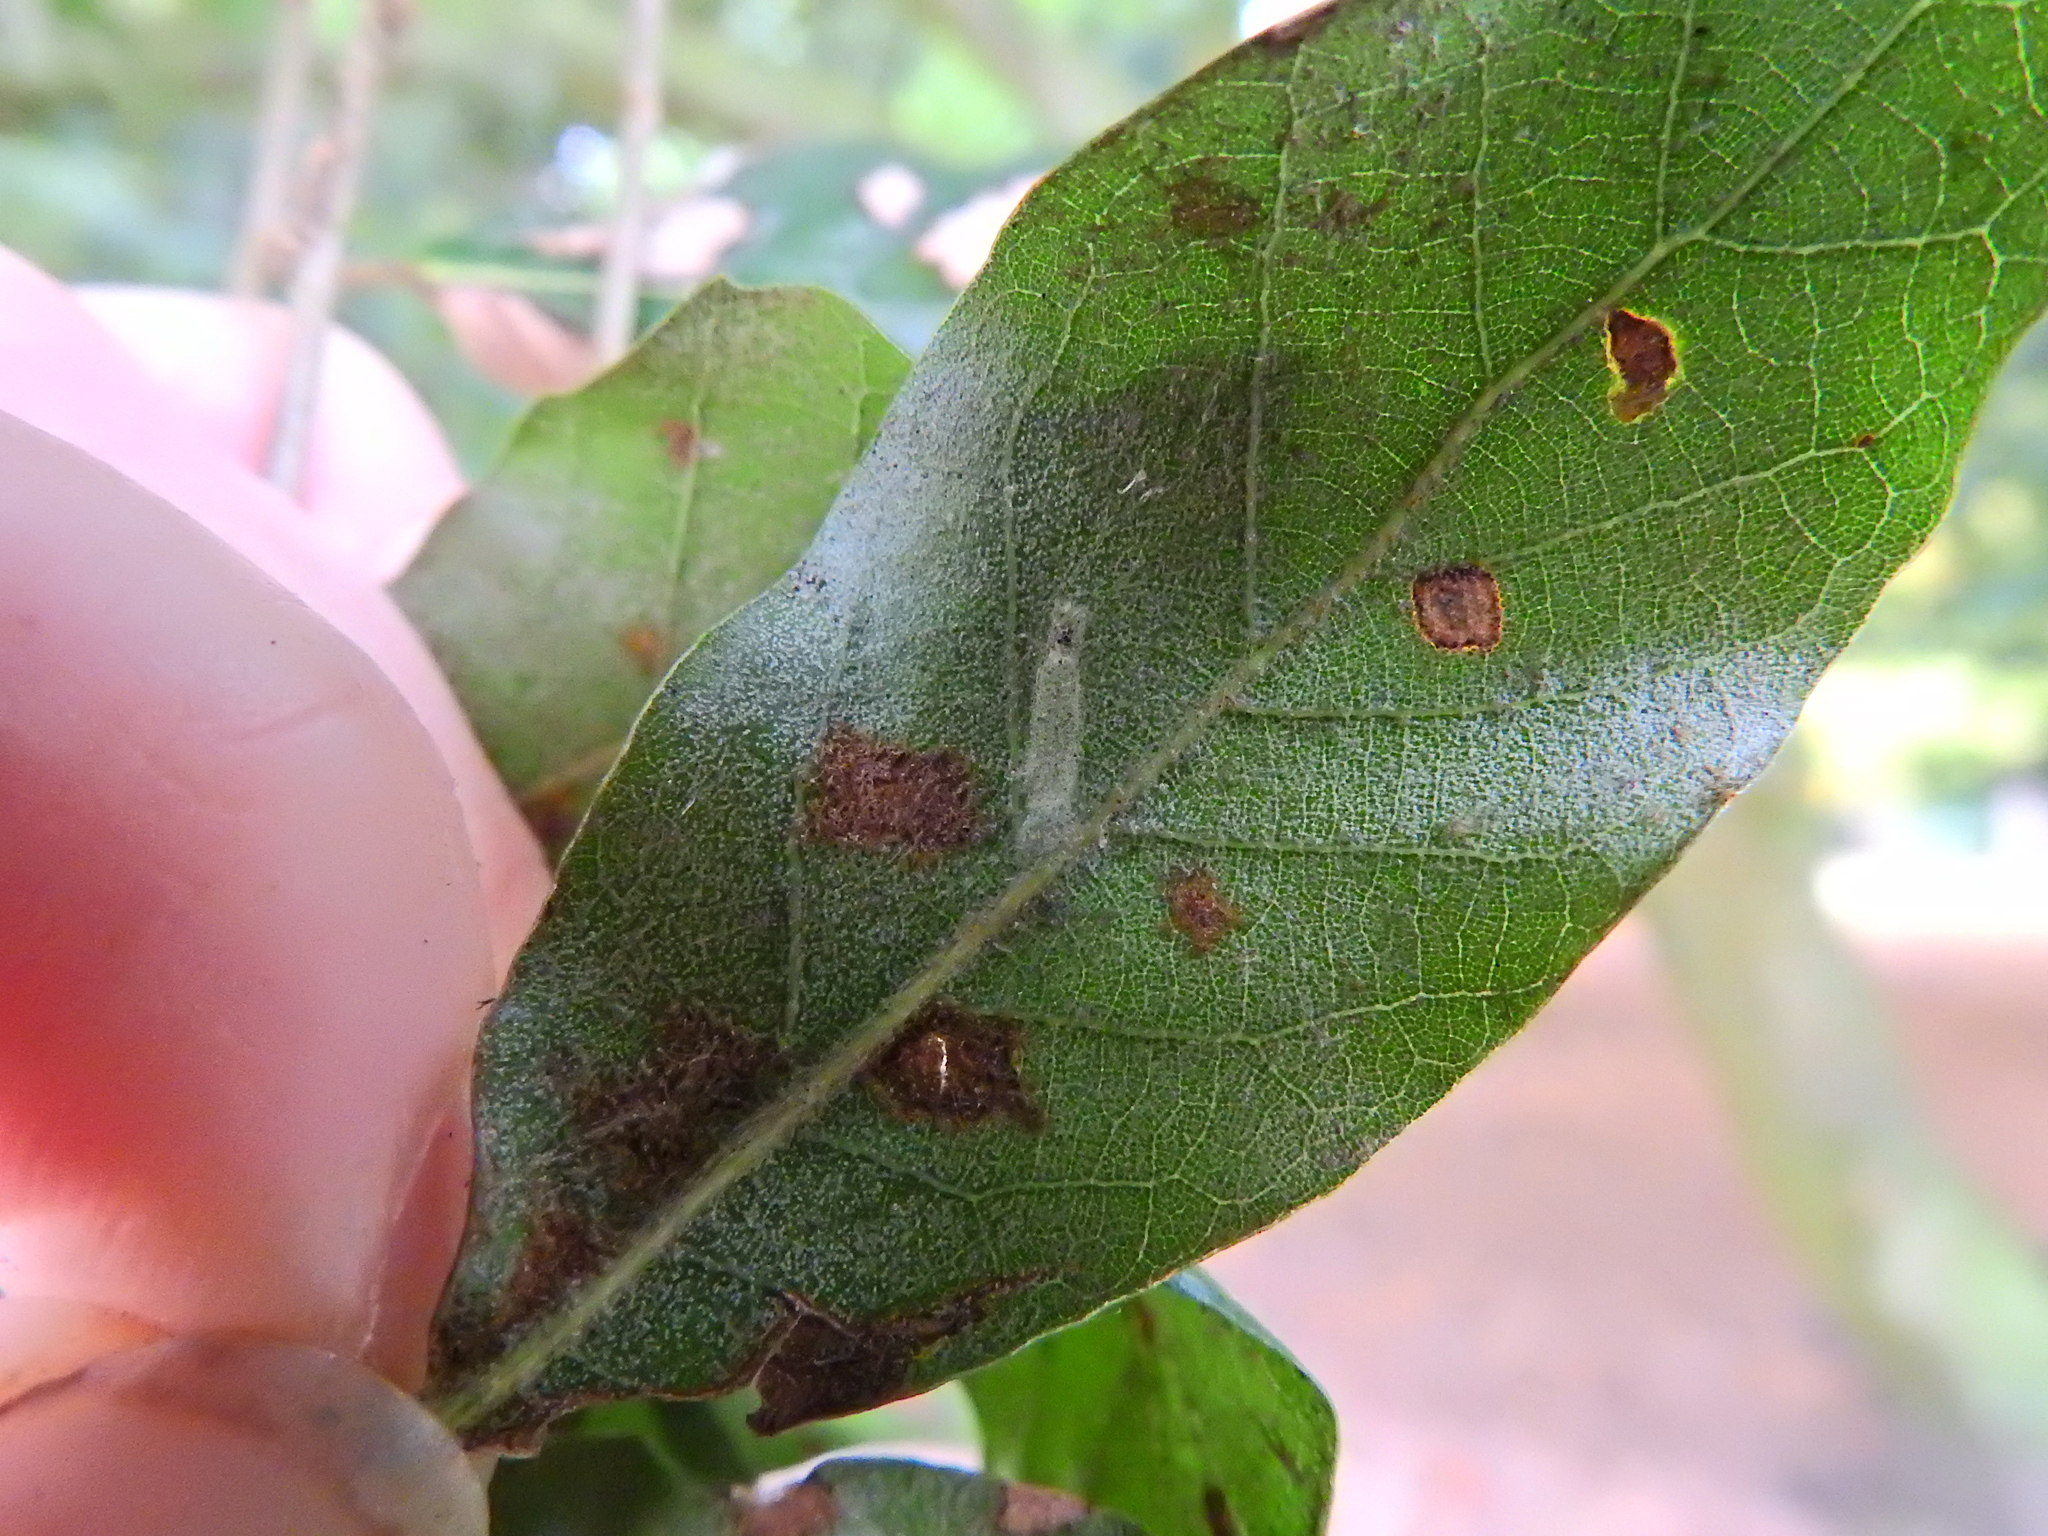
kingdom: Plantae
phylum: Tracheophyta
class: Magnoliopsida
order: Fagales
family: Fagaceae
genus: Quercus
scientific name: Quercus ilex
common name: Evergreen oak
